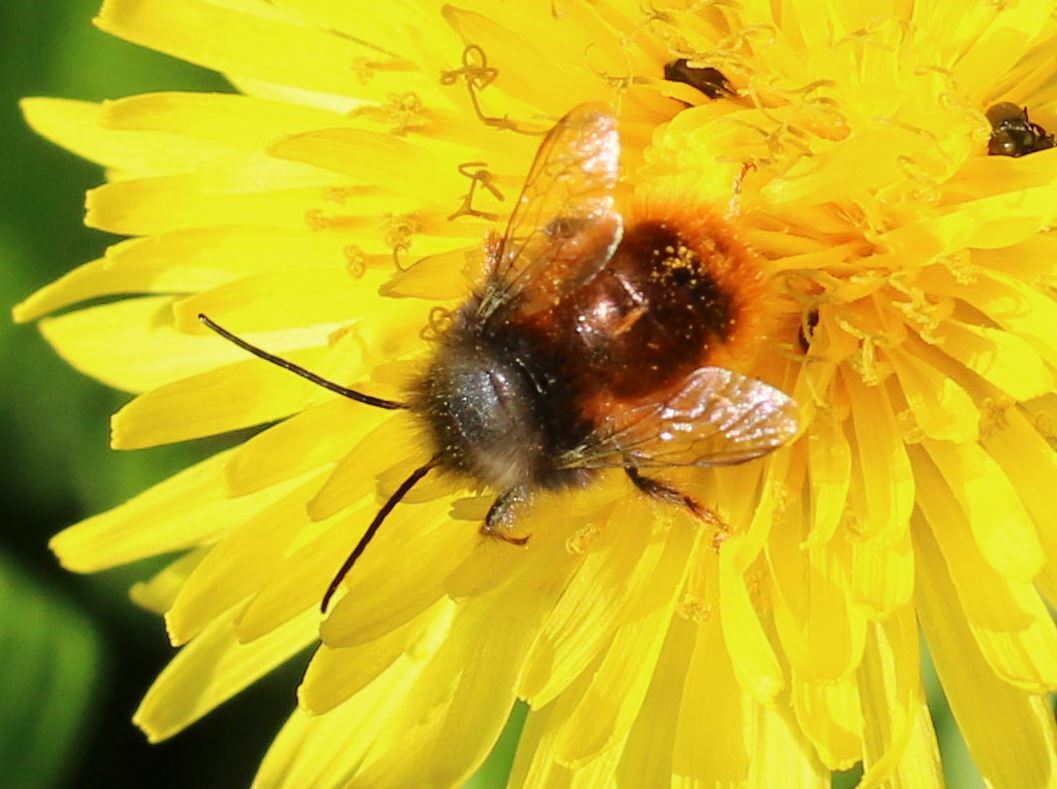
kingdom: Animalia
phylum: Arthropoda
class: Insecta
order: Hymenoptera
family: Megachilidae
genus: Osmia
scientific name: Osmia cornuta
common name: Mason bee
